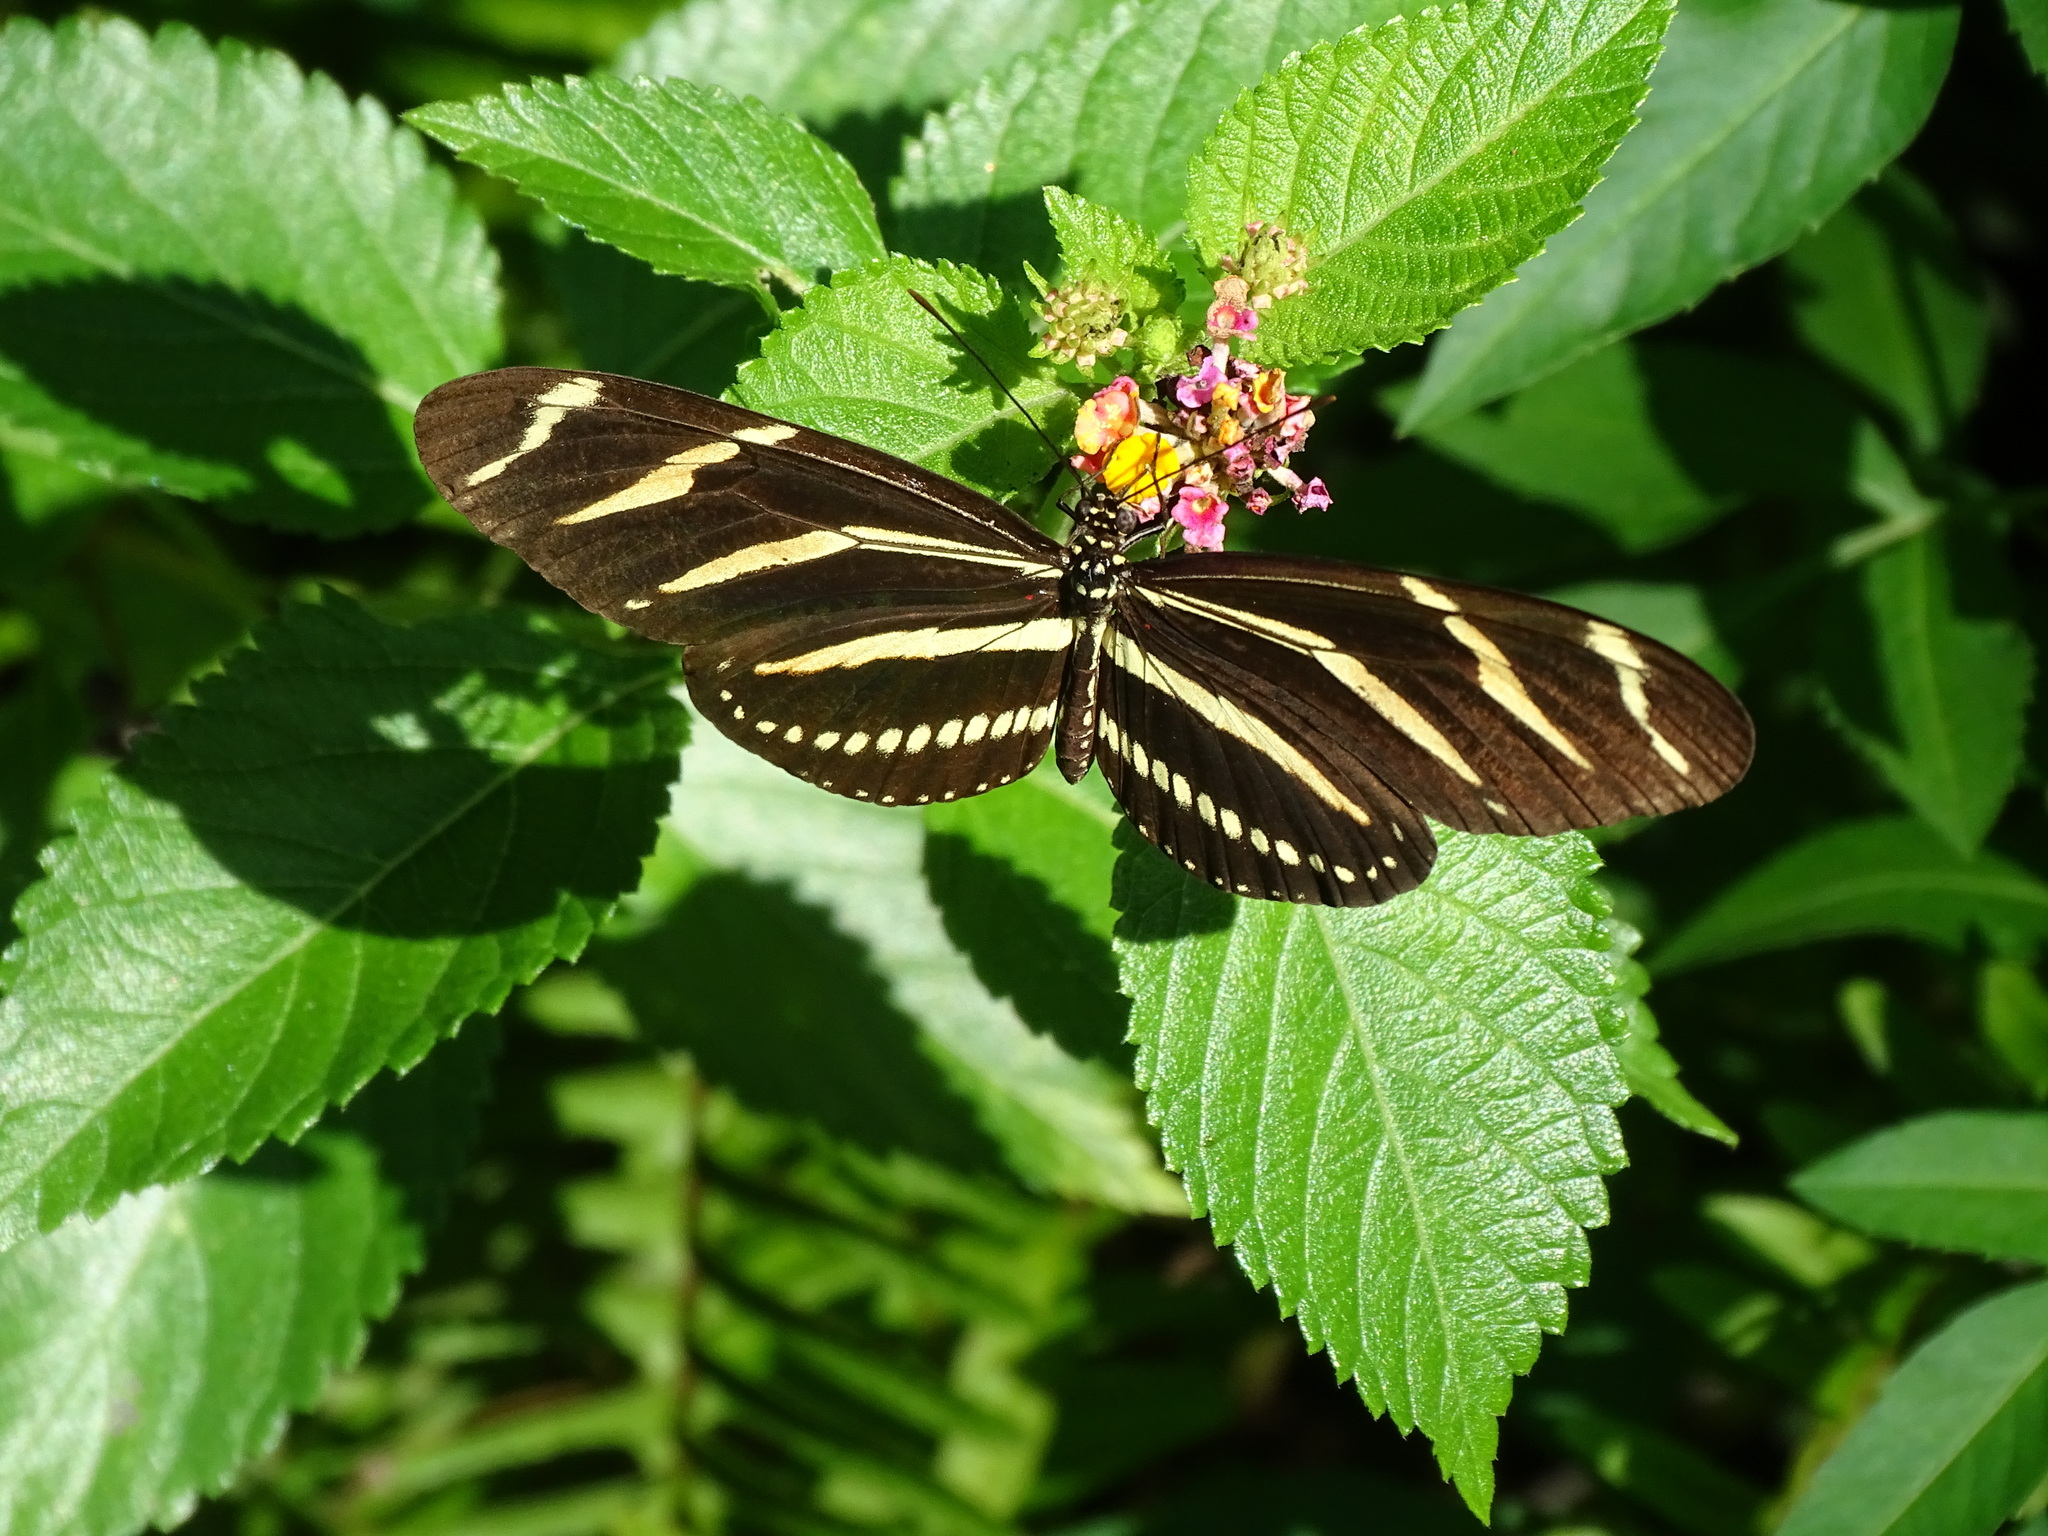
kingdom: Animalia
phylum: Arthropoda
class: Insecta
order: Lepidoptera
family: Nymphalidae
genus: Heliconius
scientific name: Heliconius charithonia
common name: Zebra long wing
